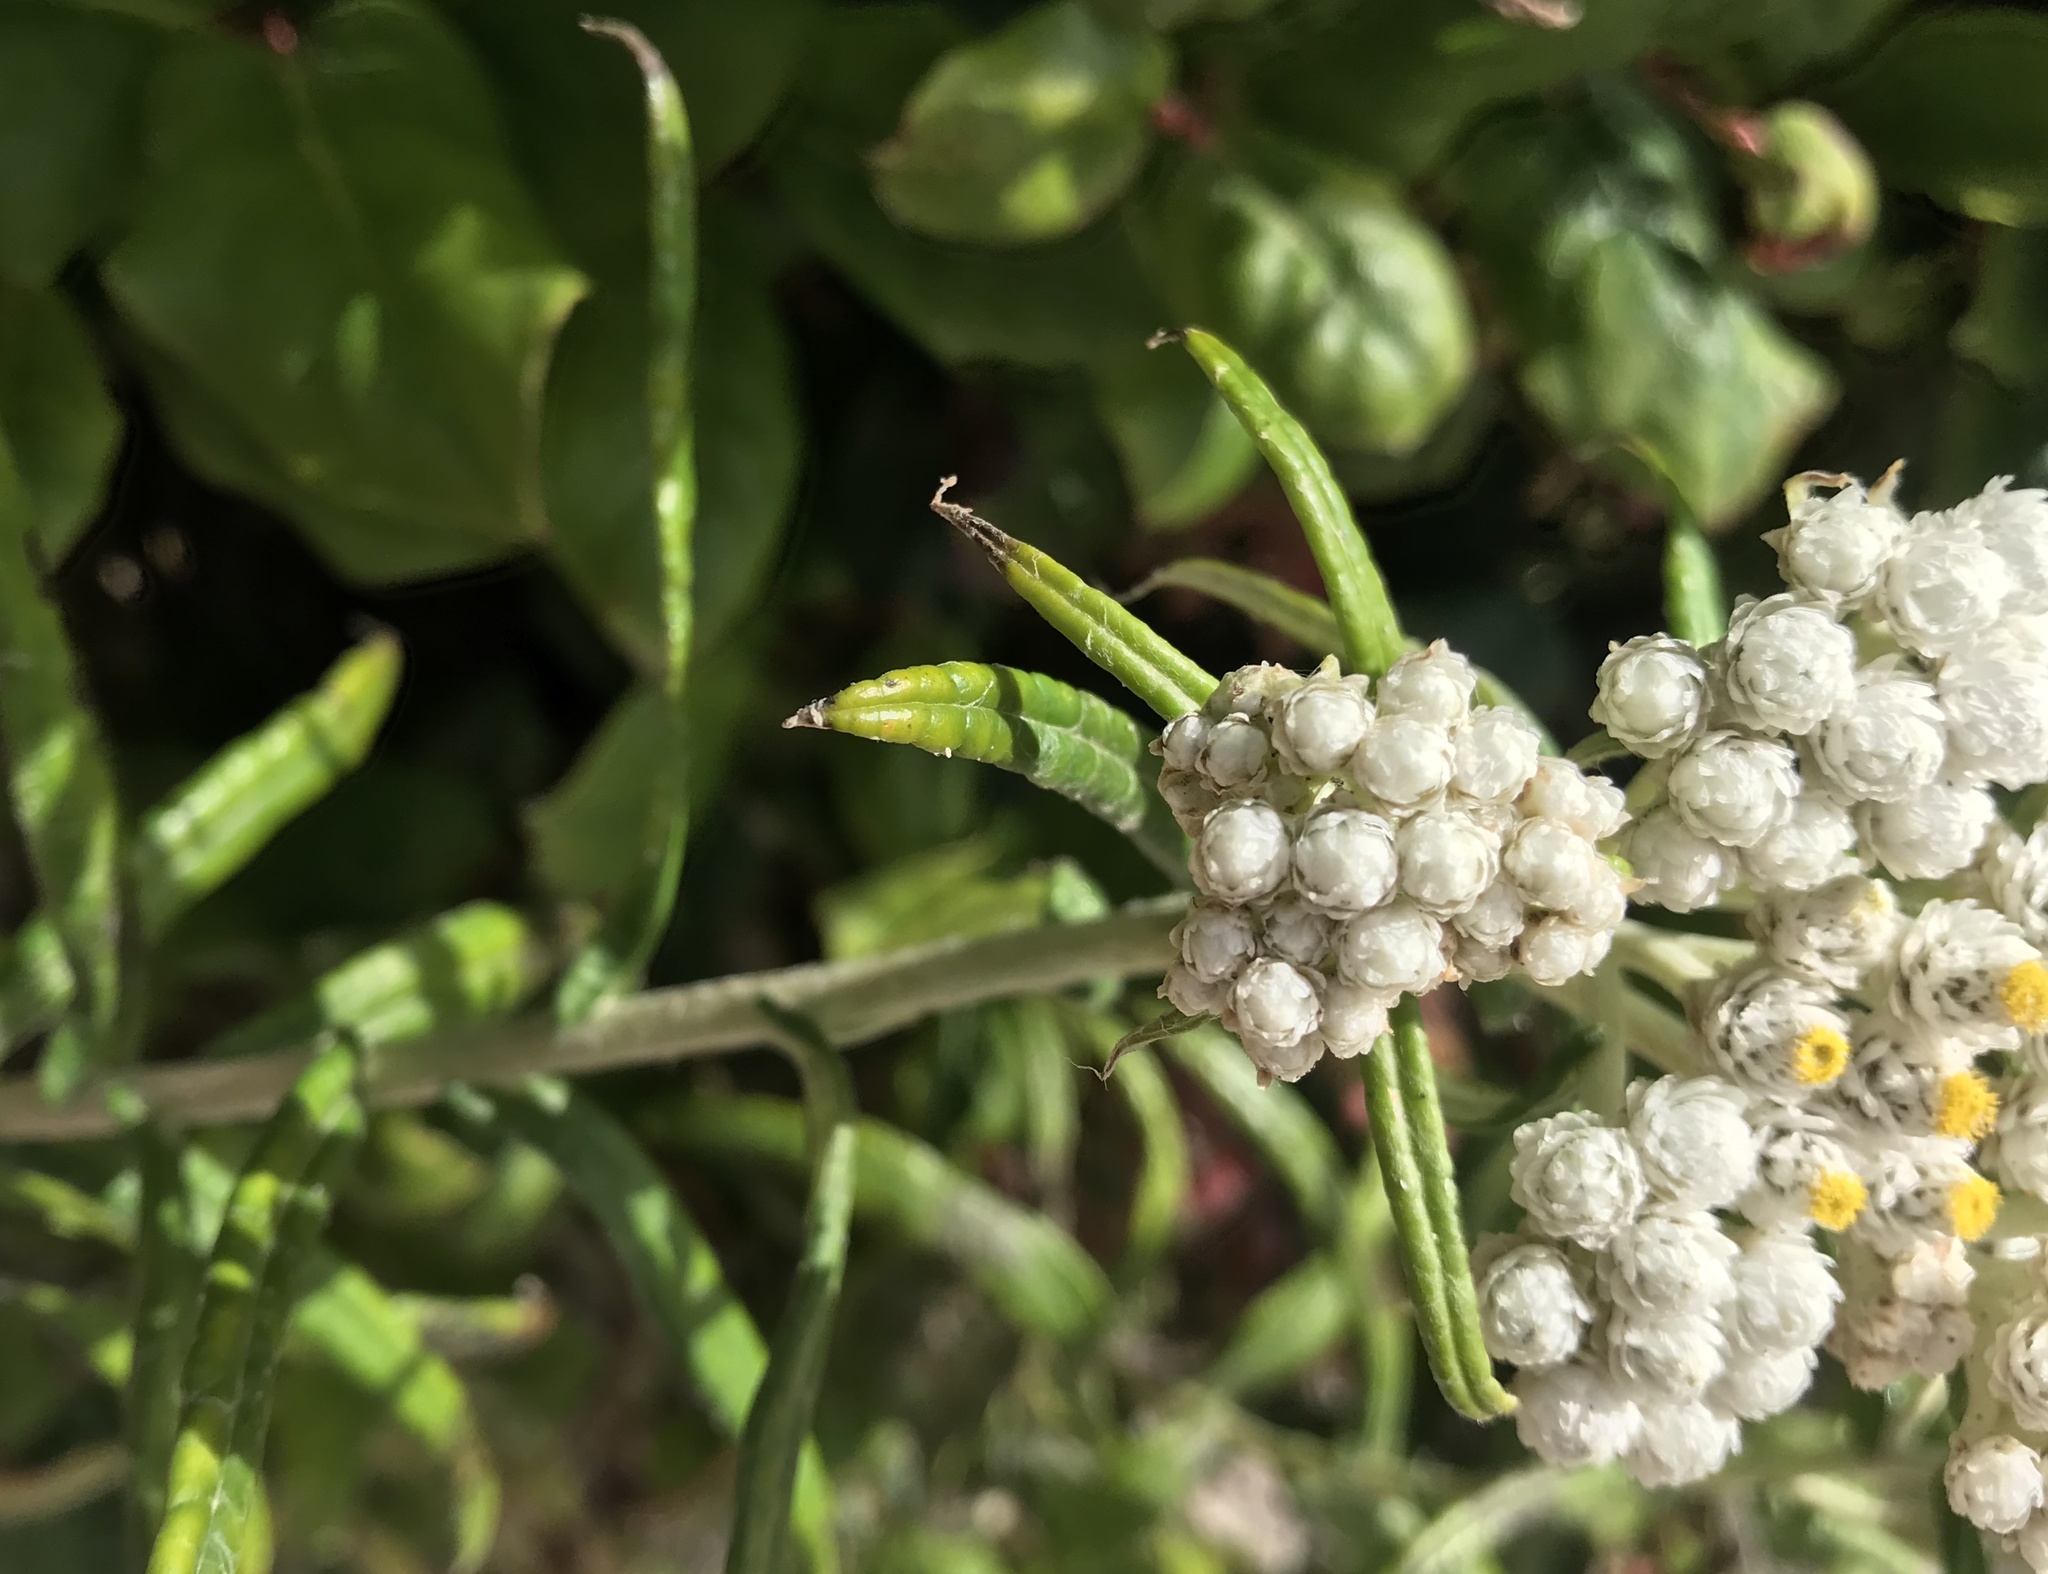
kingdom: Plantae
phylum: Tracheophyta
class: Magnoliopsida
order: Asterales
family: Asteraceae
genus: Anaphalis
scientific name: Anaphalis margaritacea
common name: Pearly everlasting
